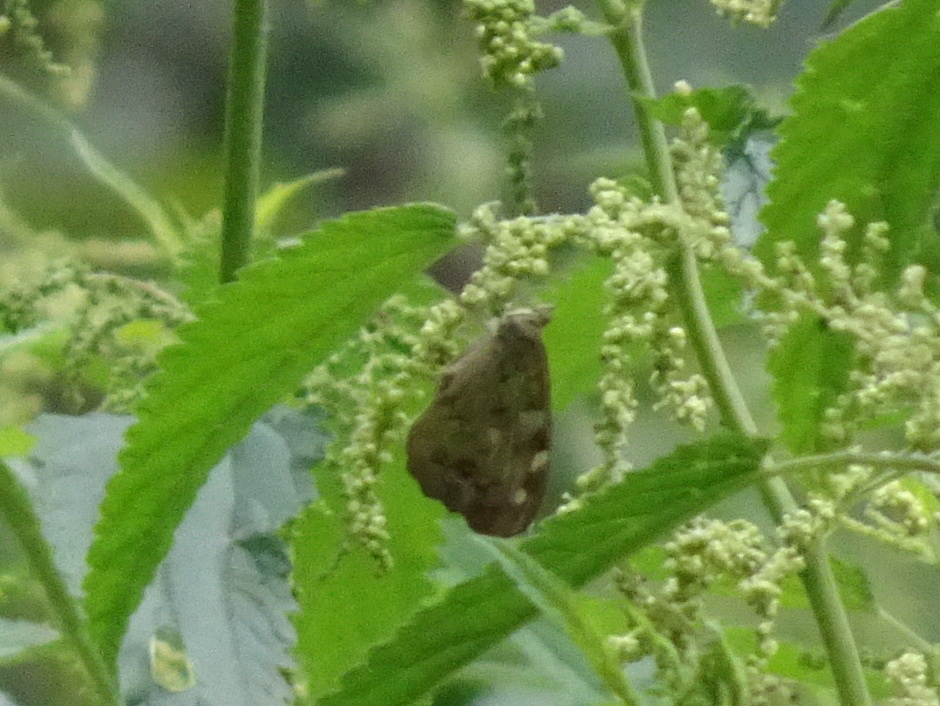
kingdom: Animalia
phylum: Arthropoda
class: Insecta
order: Lepidoptera
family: Nymphalidae
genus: Pararge
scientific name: Pararge aegeria
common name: Speckled wood
